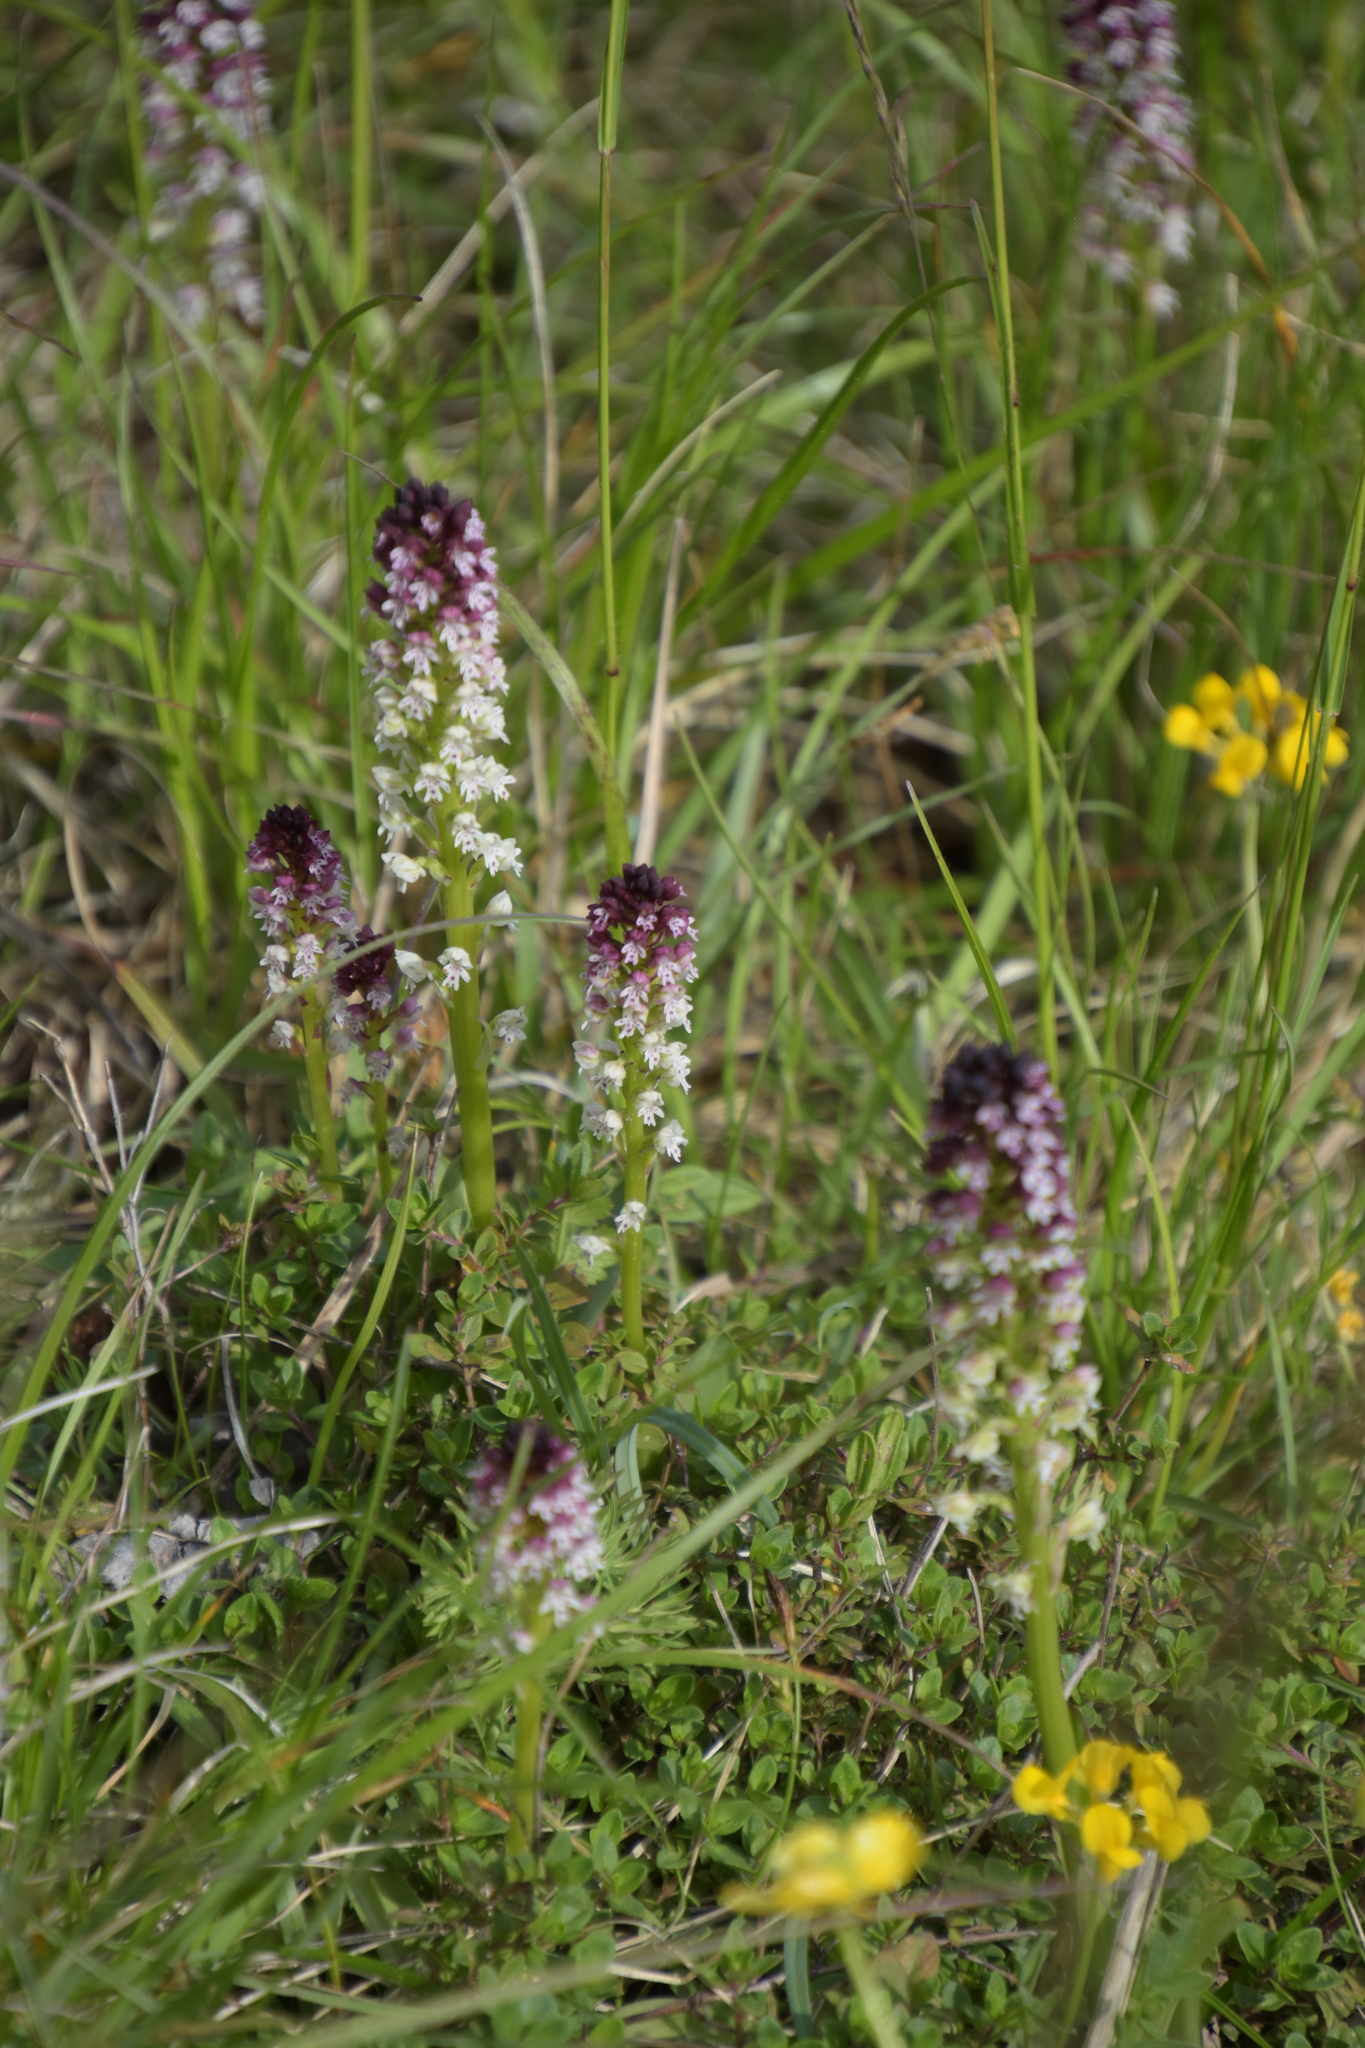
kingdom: Plantae
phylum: Tracheophyta
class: Liliopsida
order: Asparagales
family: Orchidaceae
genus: Neotinea
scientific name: Neotinea ustulata
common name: Burnt orchid
